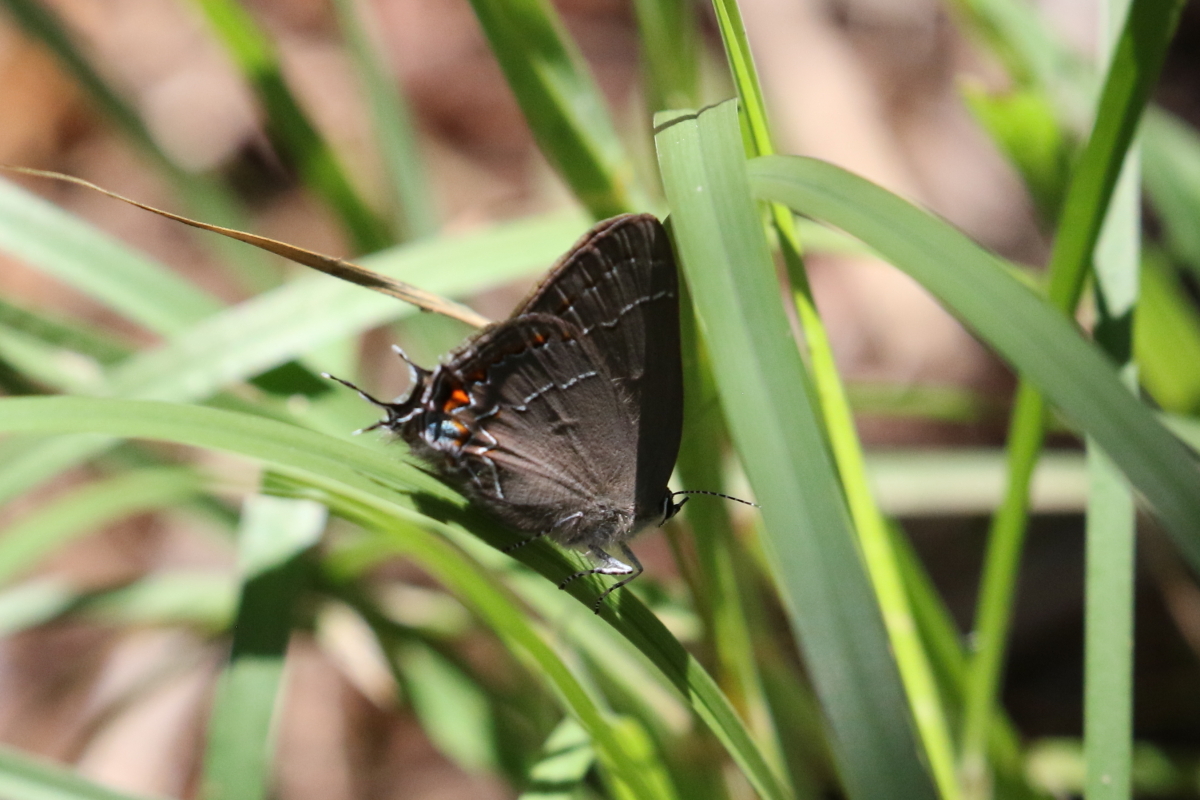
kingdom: Animalia
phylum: Arthropoda
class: Insecta
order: Lepidoptera
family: Lycaenidae
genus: Fixsenia
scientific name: Fixsenia favonius
